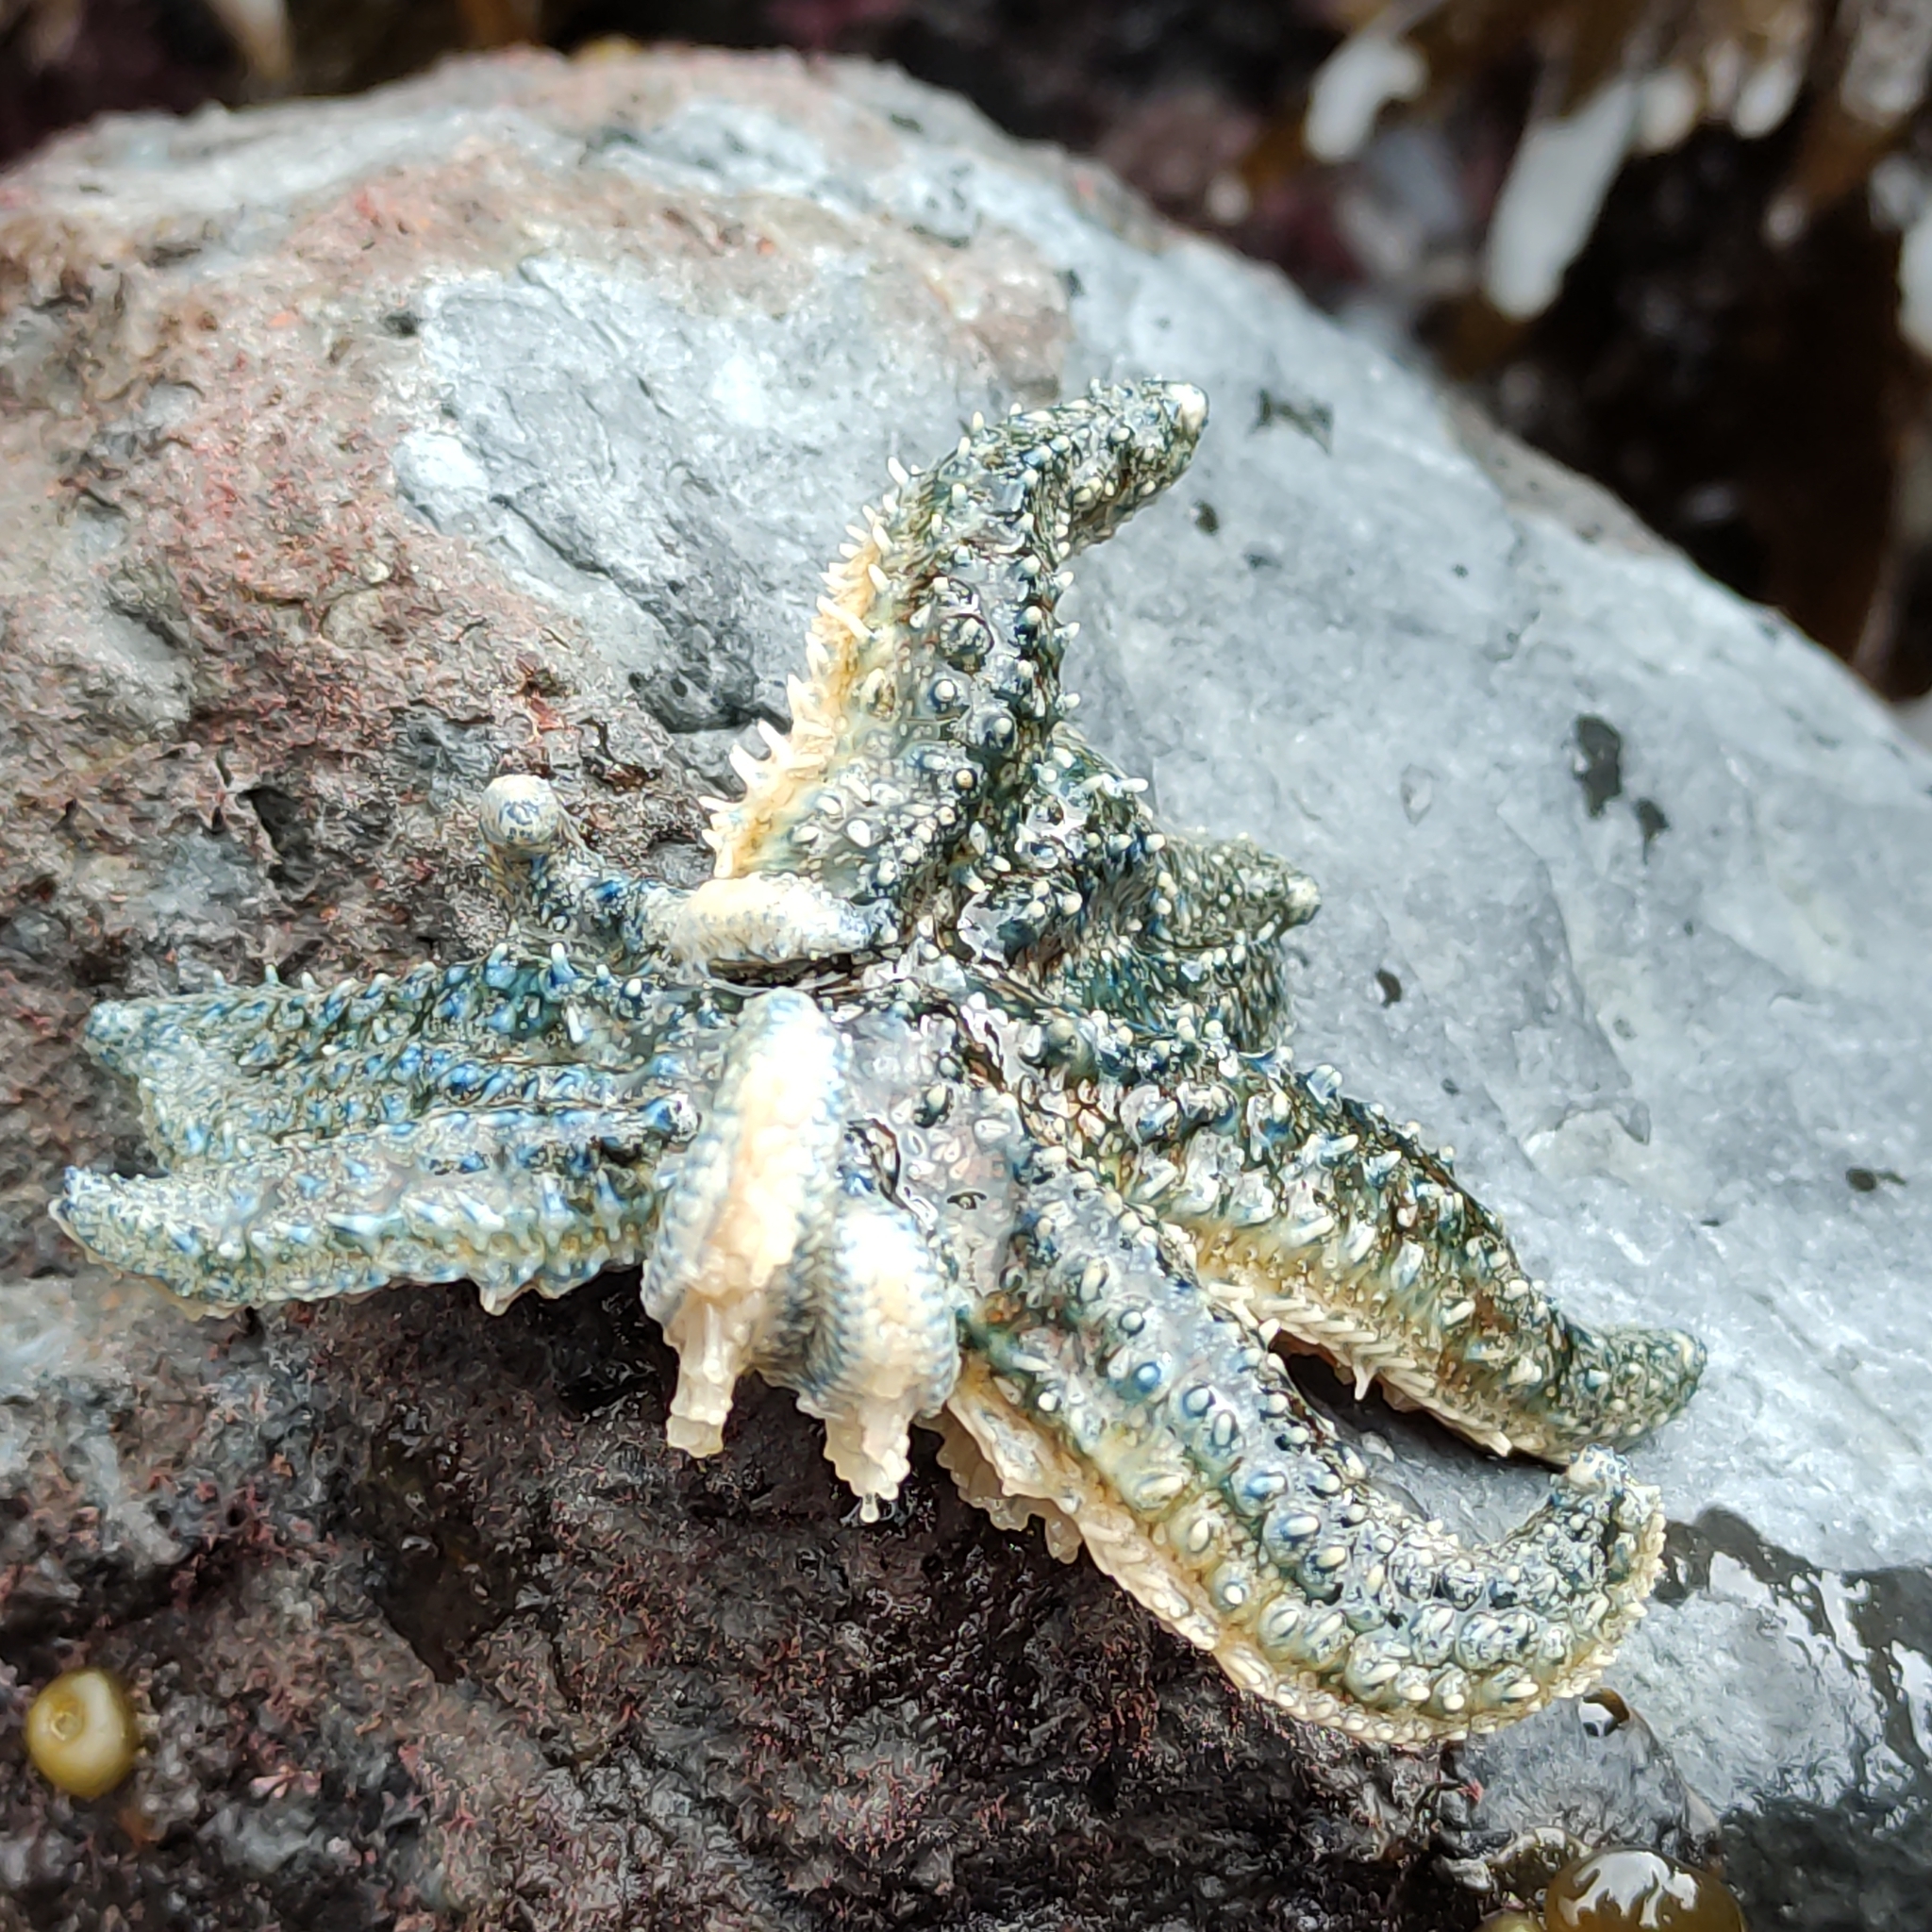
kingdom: Animalia
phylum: Echinodermata
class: Asteroidea
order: Forcipulatida
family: Asteriidae
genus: Coscinasterias
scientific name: Coscinasterias muricata
